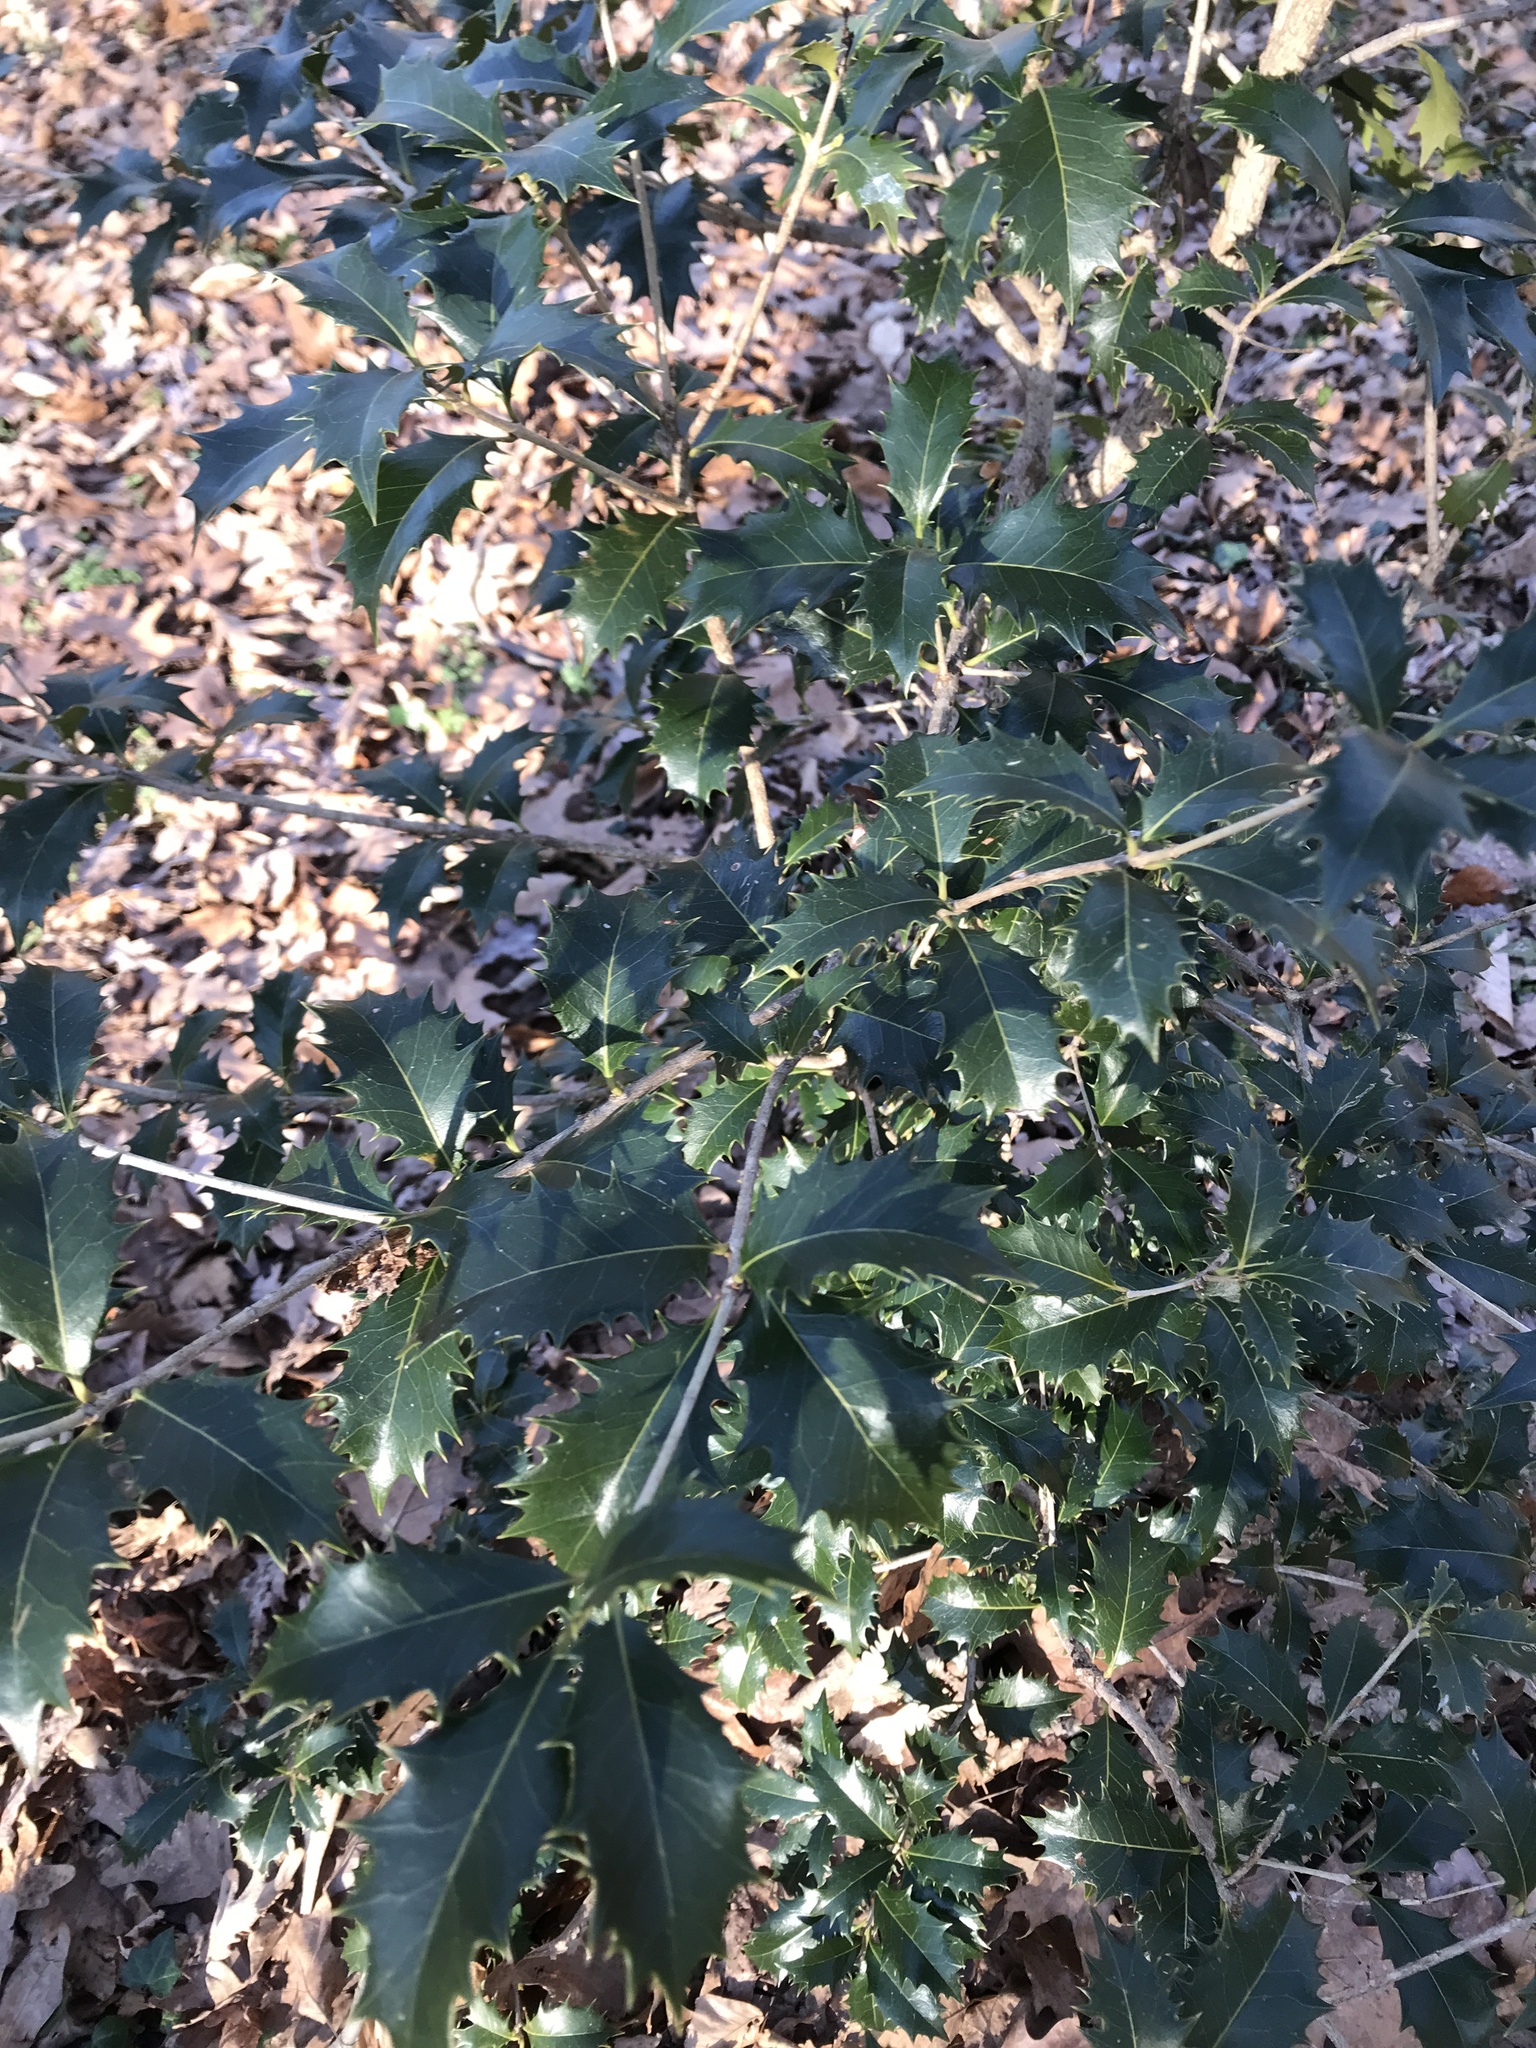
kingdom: Plantae
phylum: Tracheophyta
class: Magnoliopsida
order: Lamiales
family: Oleaceae
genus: Osmanthus
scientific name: Osmanthus heterophyllus
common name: Holly osmanthus
